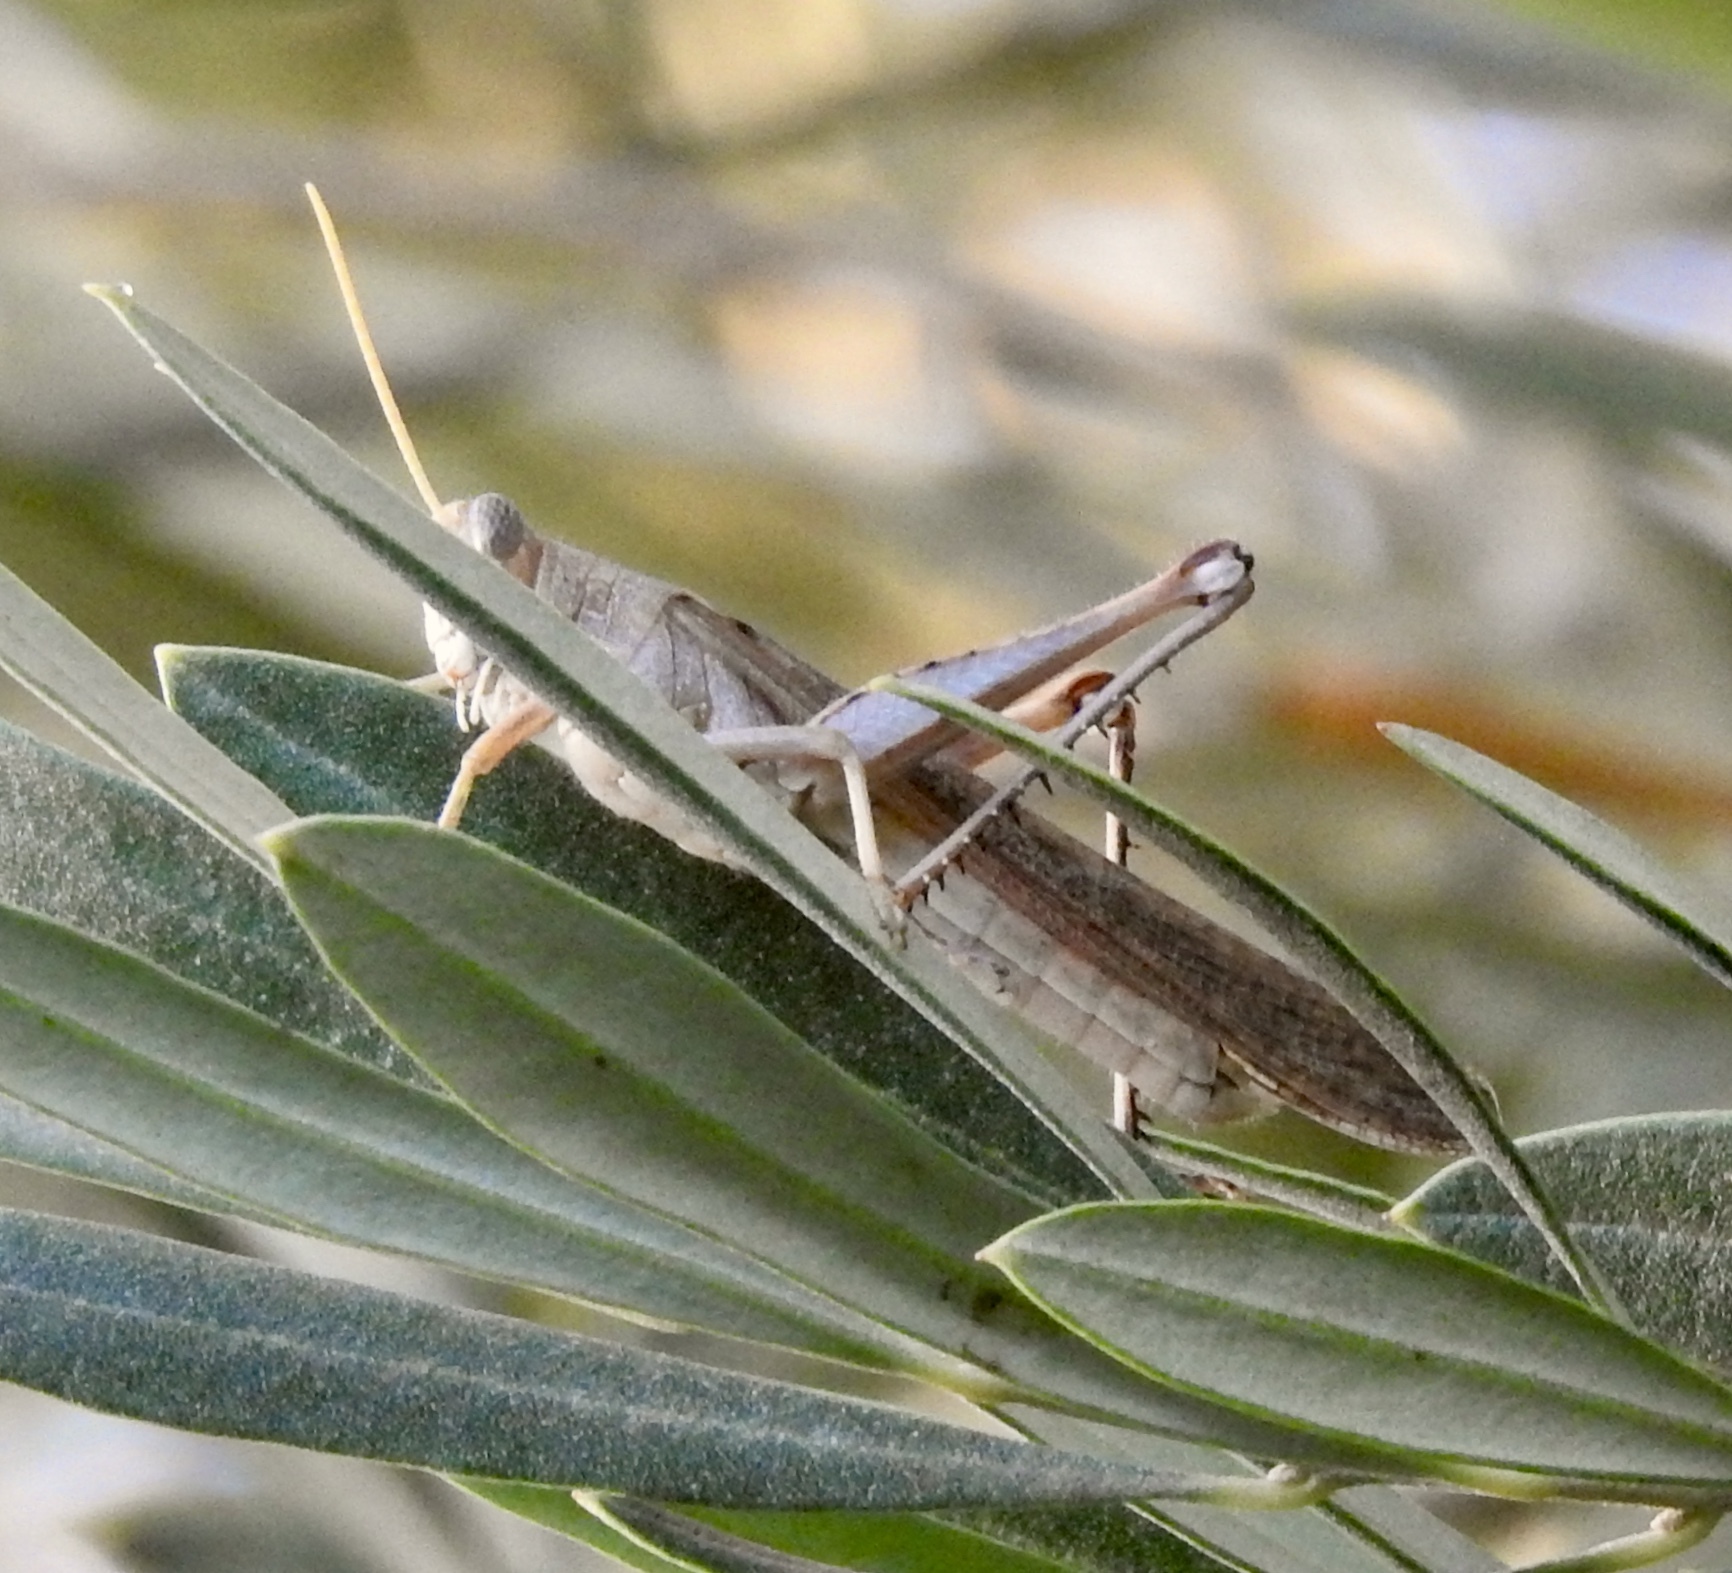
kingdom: Animalia
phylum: Arthropoda
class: Insecta
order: Orthoptera
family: Acrididae
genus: Schistocerca
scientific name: Schistocerca nitens
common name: Vagrant grasshopper
